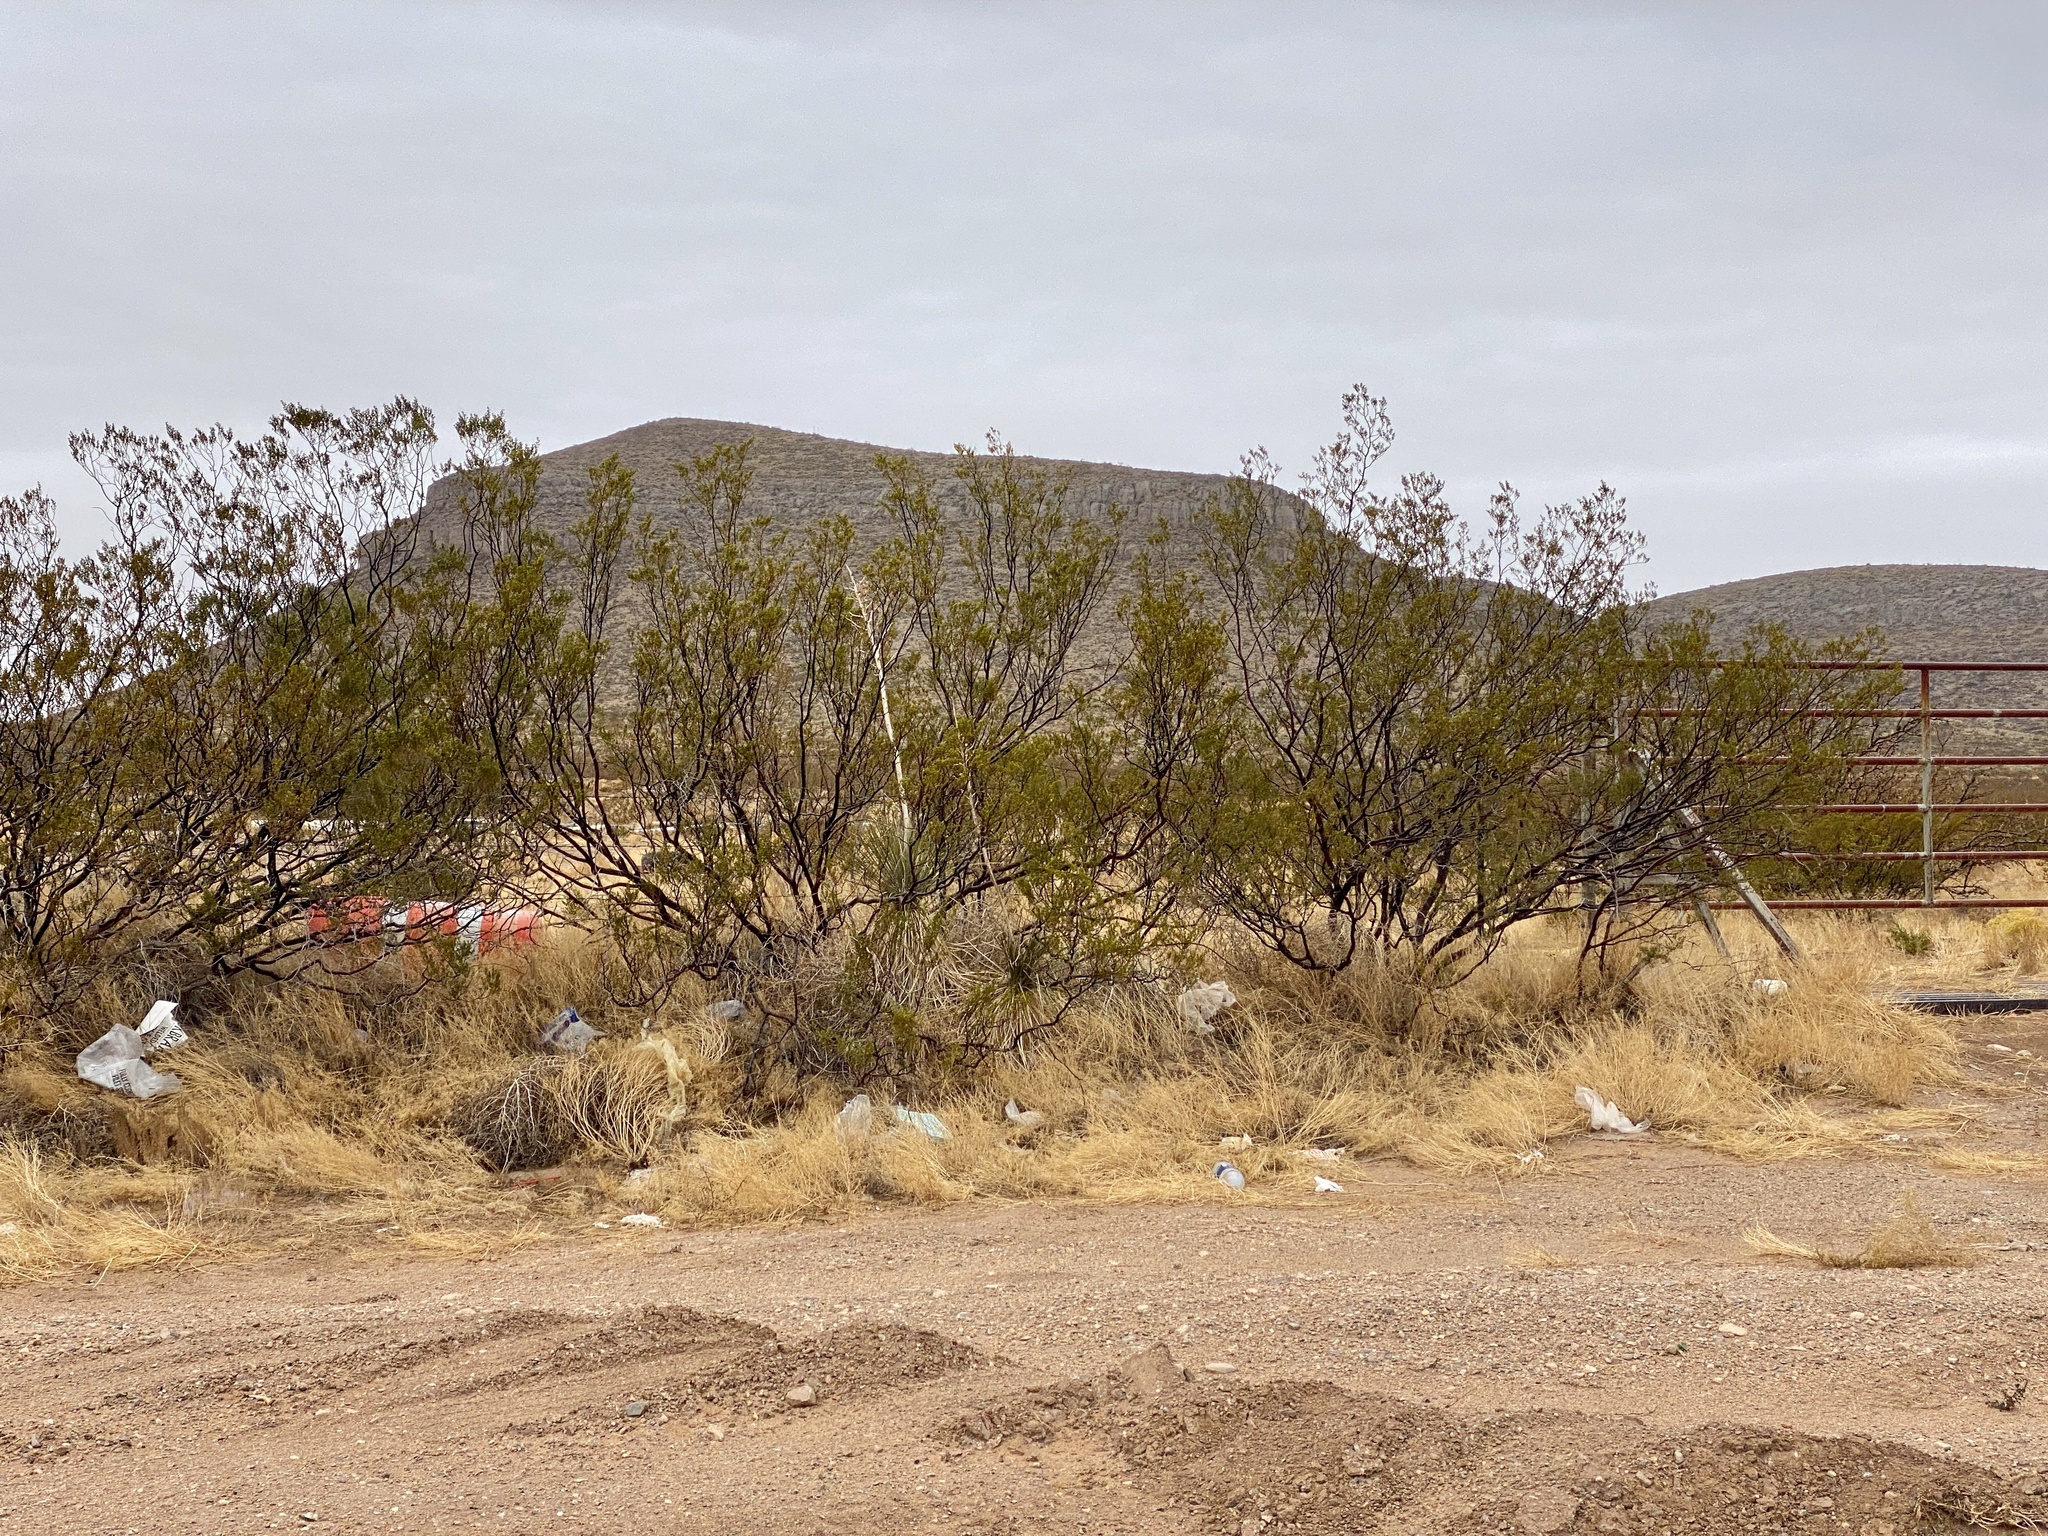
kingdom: Plantae
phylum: Tracheophyta
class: Magnoliopsida
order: Zygophyllales
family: Zygophyllaceae
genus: Larrea
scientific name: Larrea tridentata
